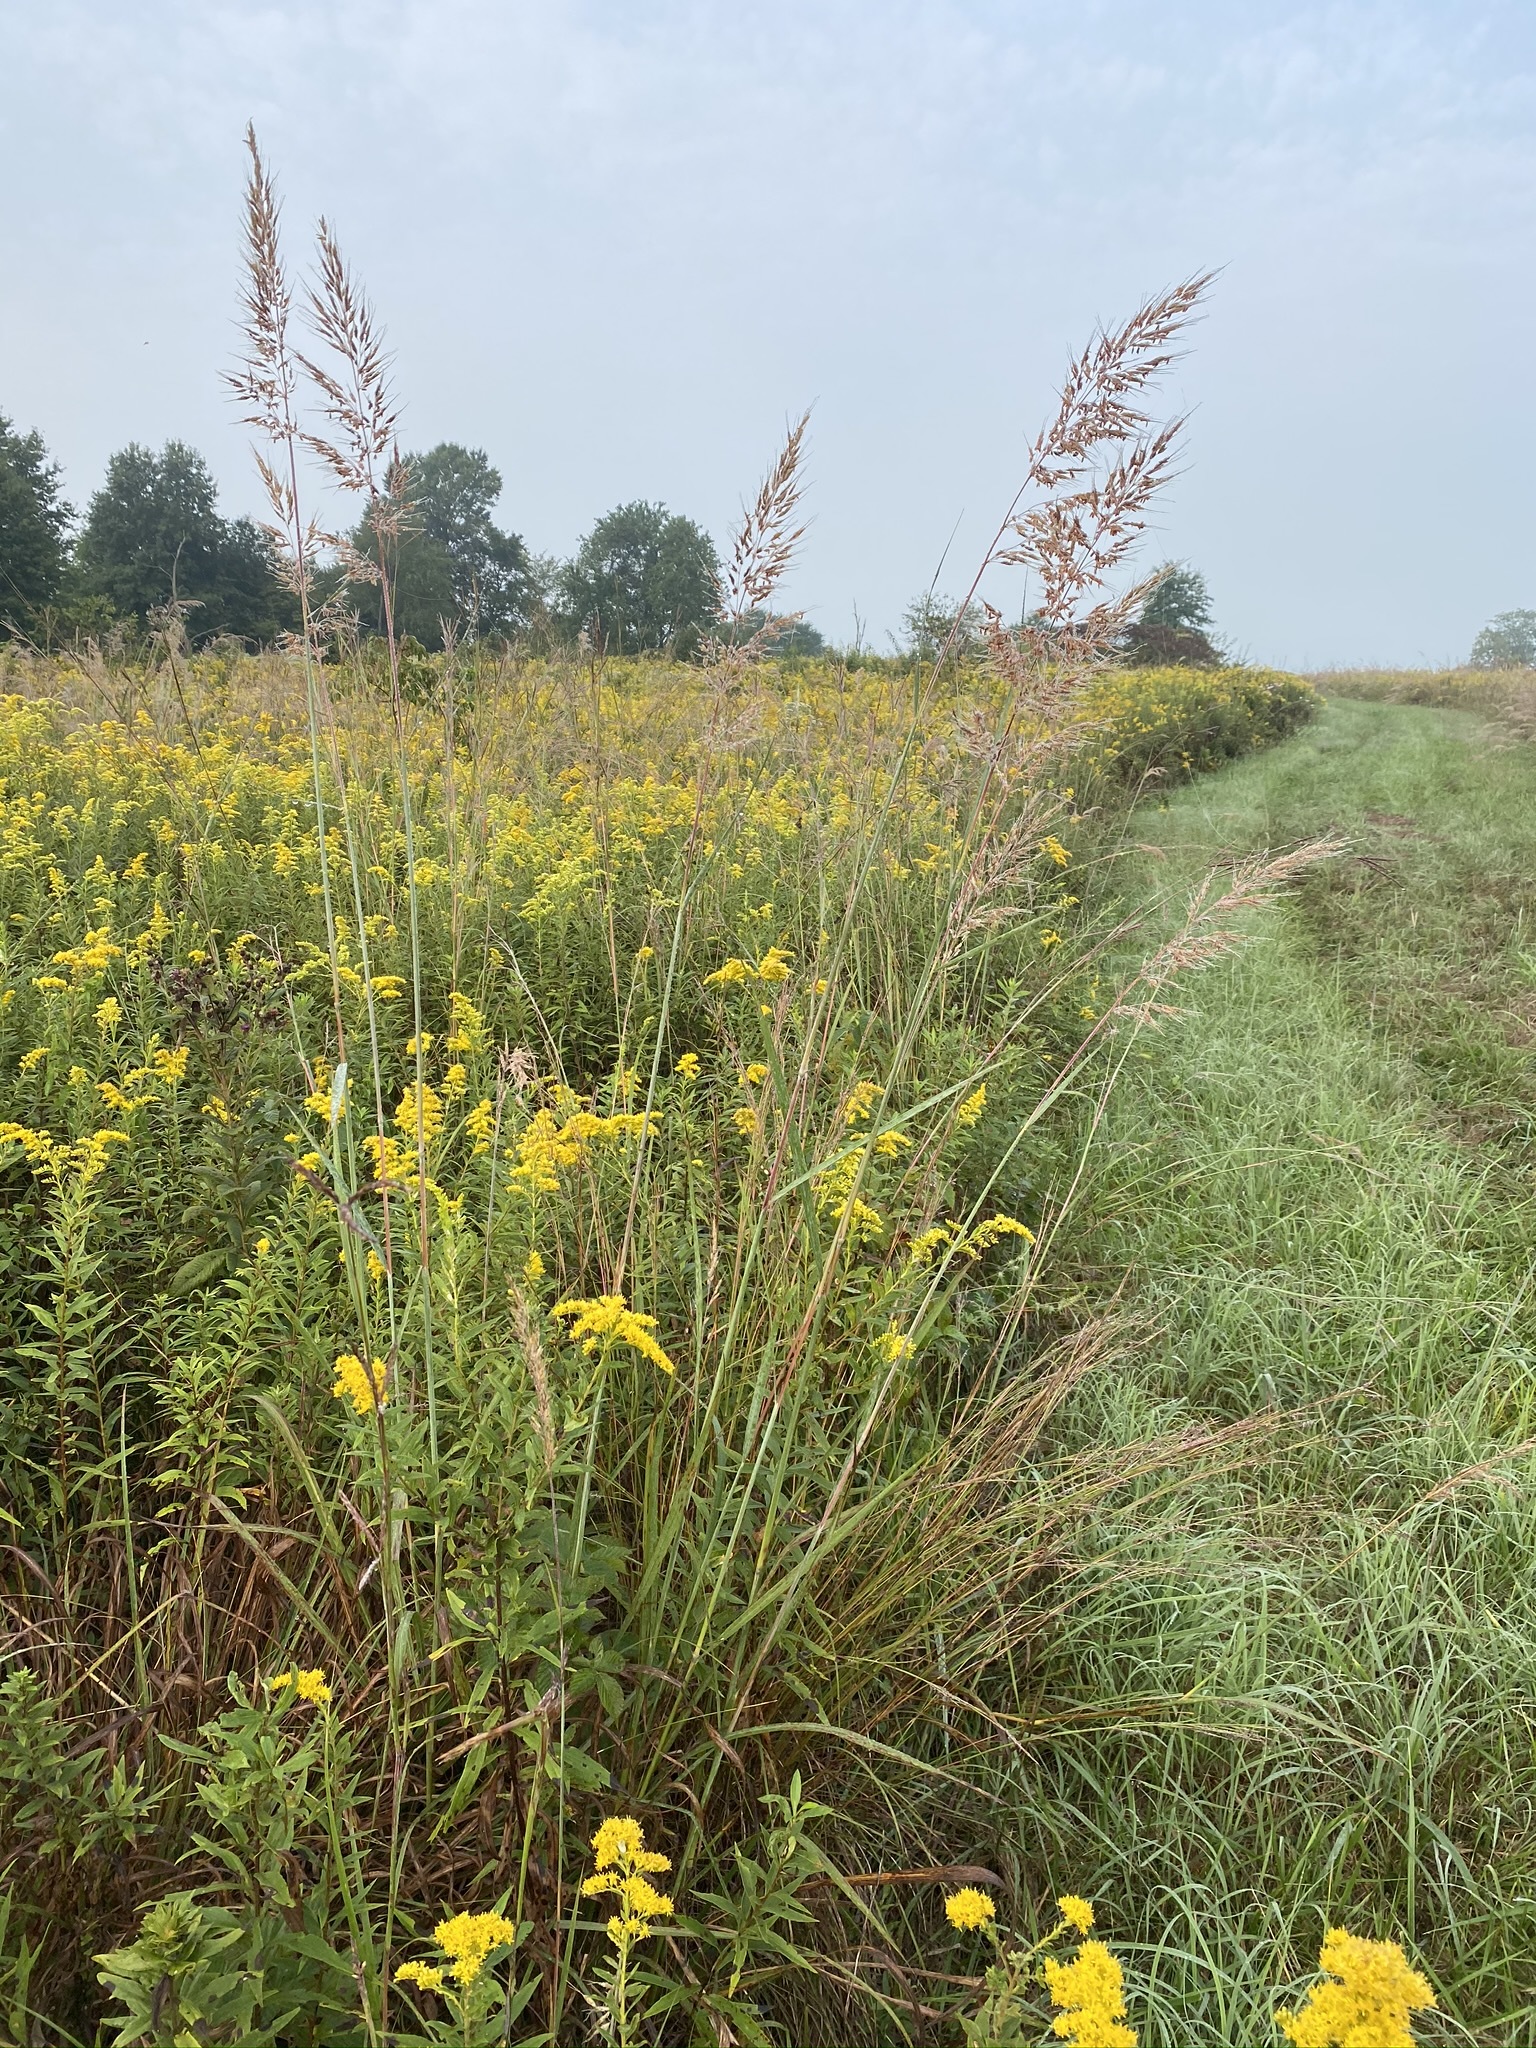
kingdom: Plantae
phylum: Tracheophyta
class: Liliopsida
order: Poales
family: Poaceae
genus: Sorghastrum
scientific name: Sorghastrum nutans
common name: Indian grass
